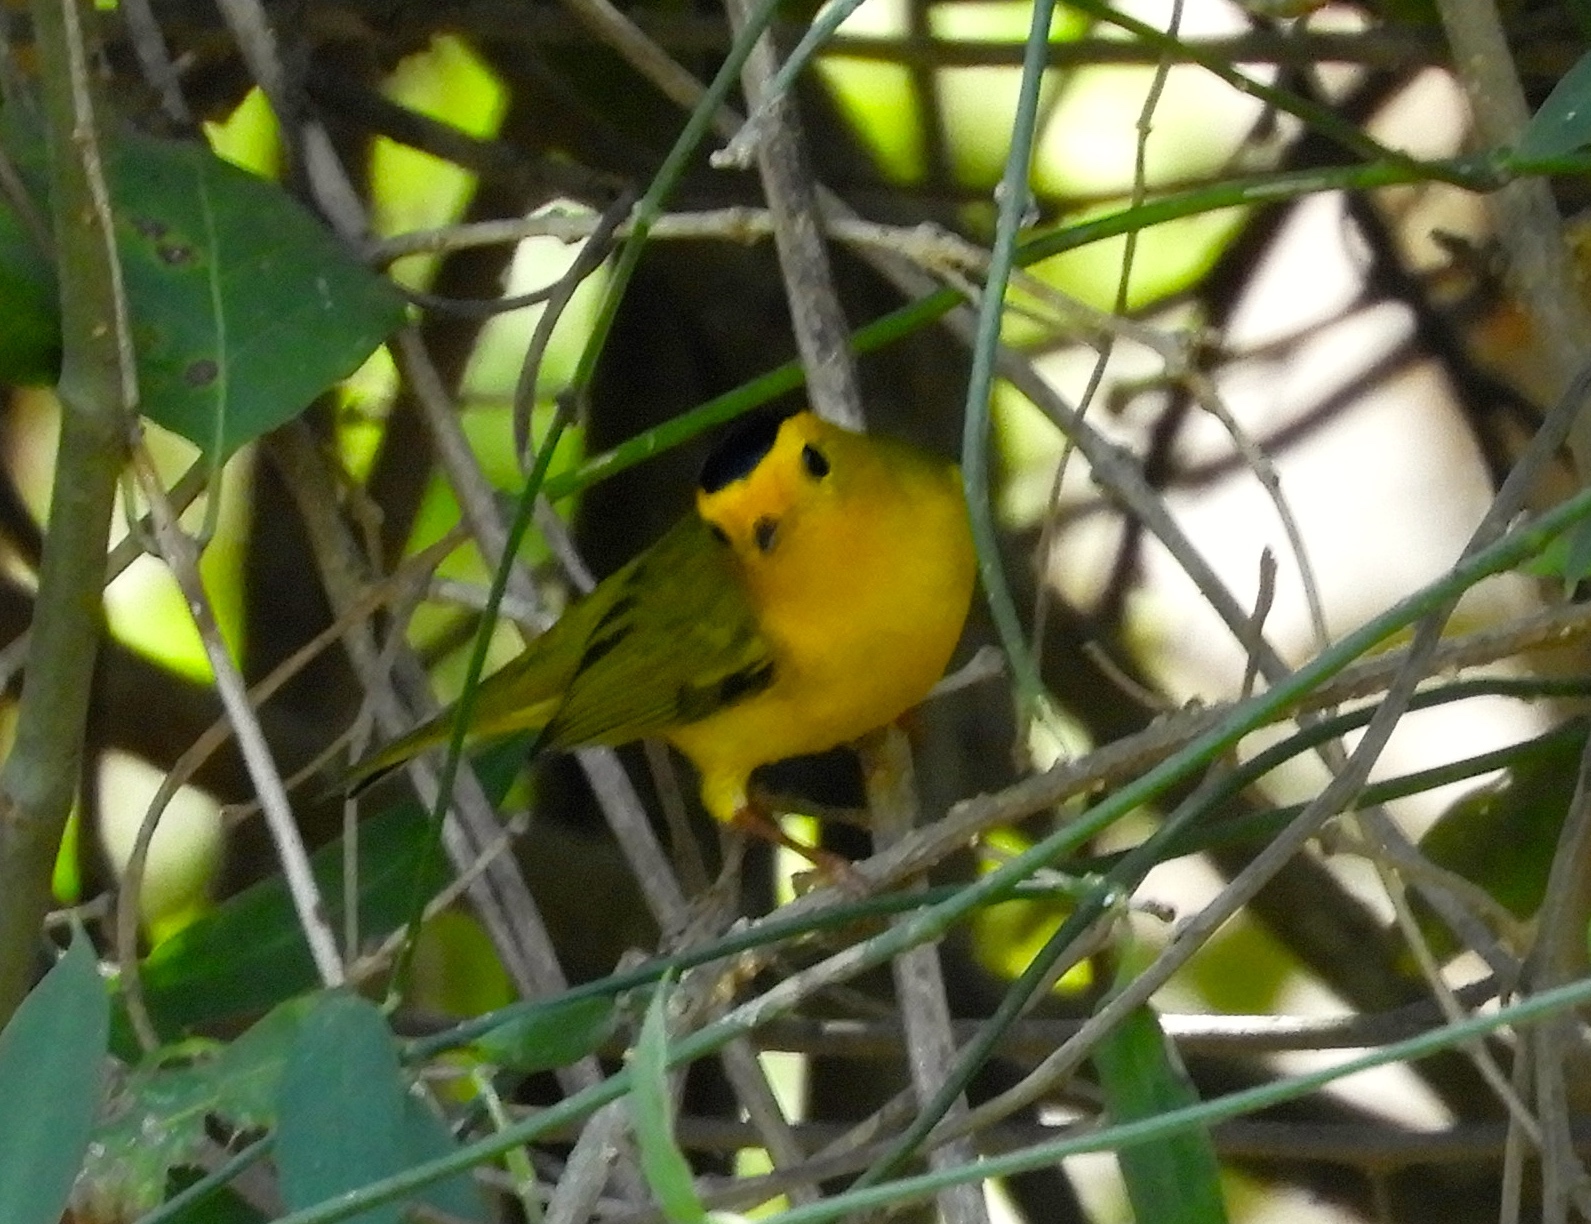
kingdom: Animalia
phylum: Chordata
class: Aves
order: Passeriformes
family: Parulidae
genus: Cardellina
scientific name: Cardellina pusilla
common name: Wilson's warbler
